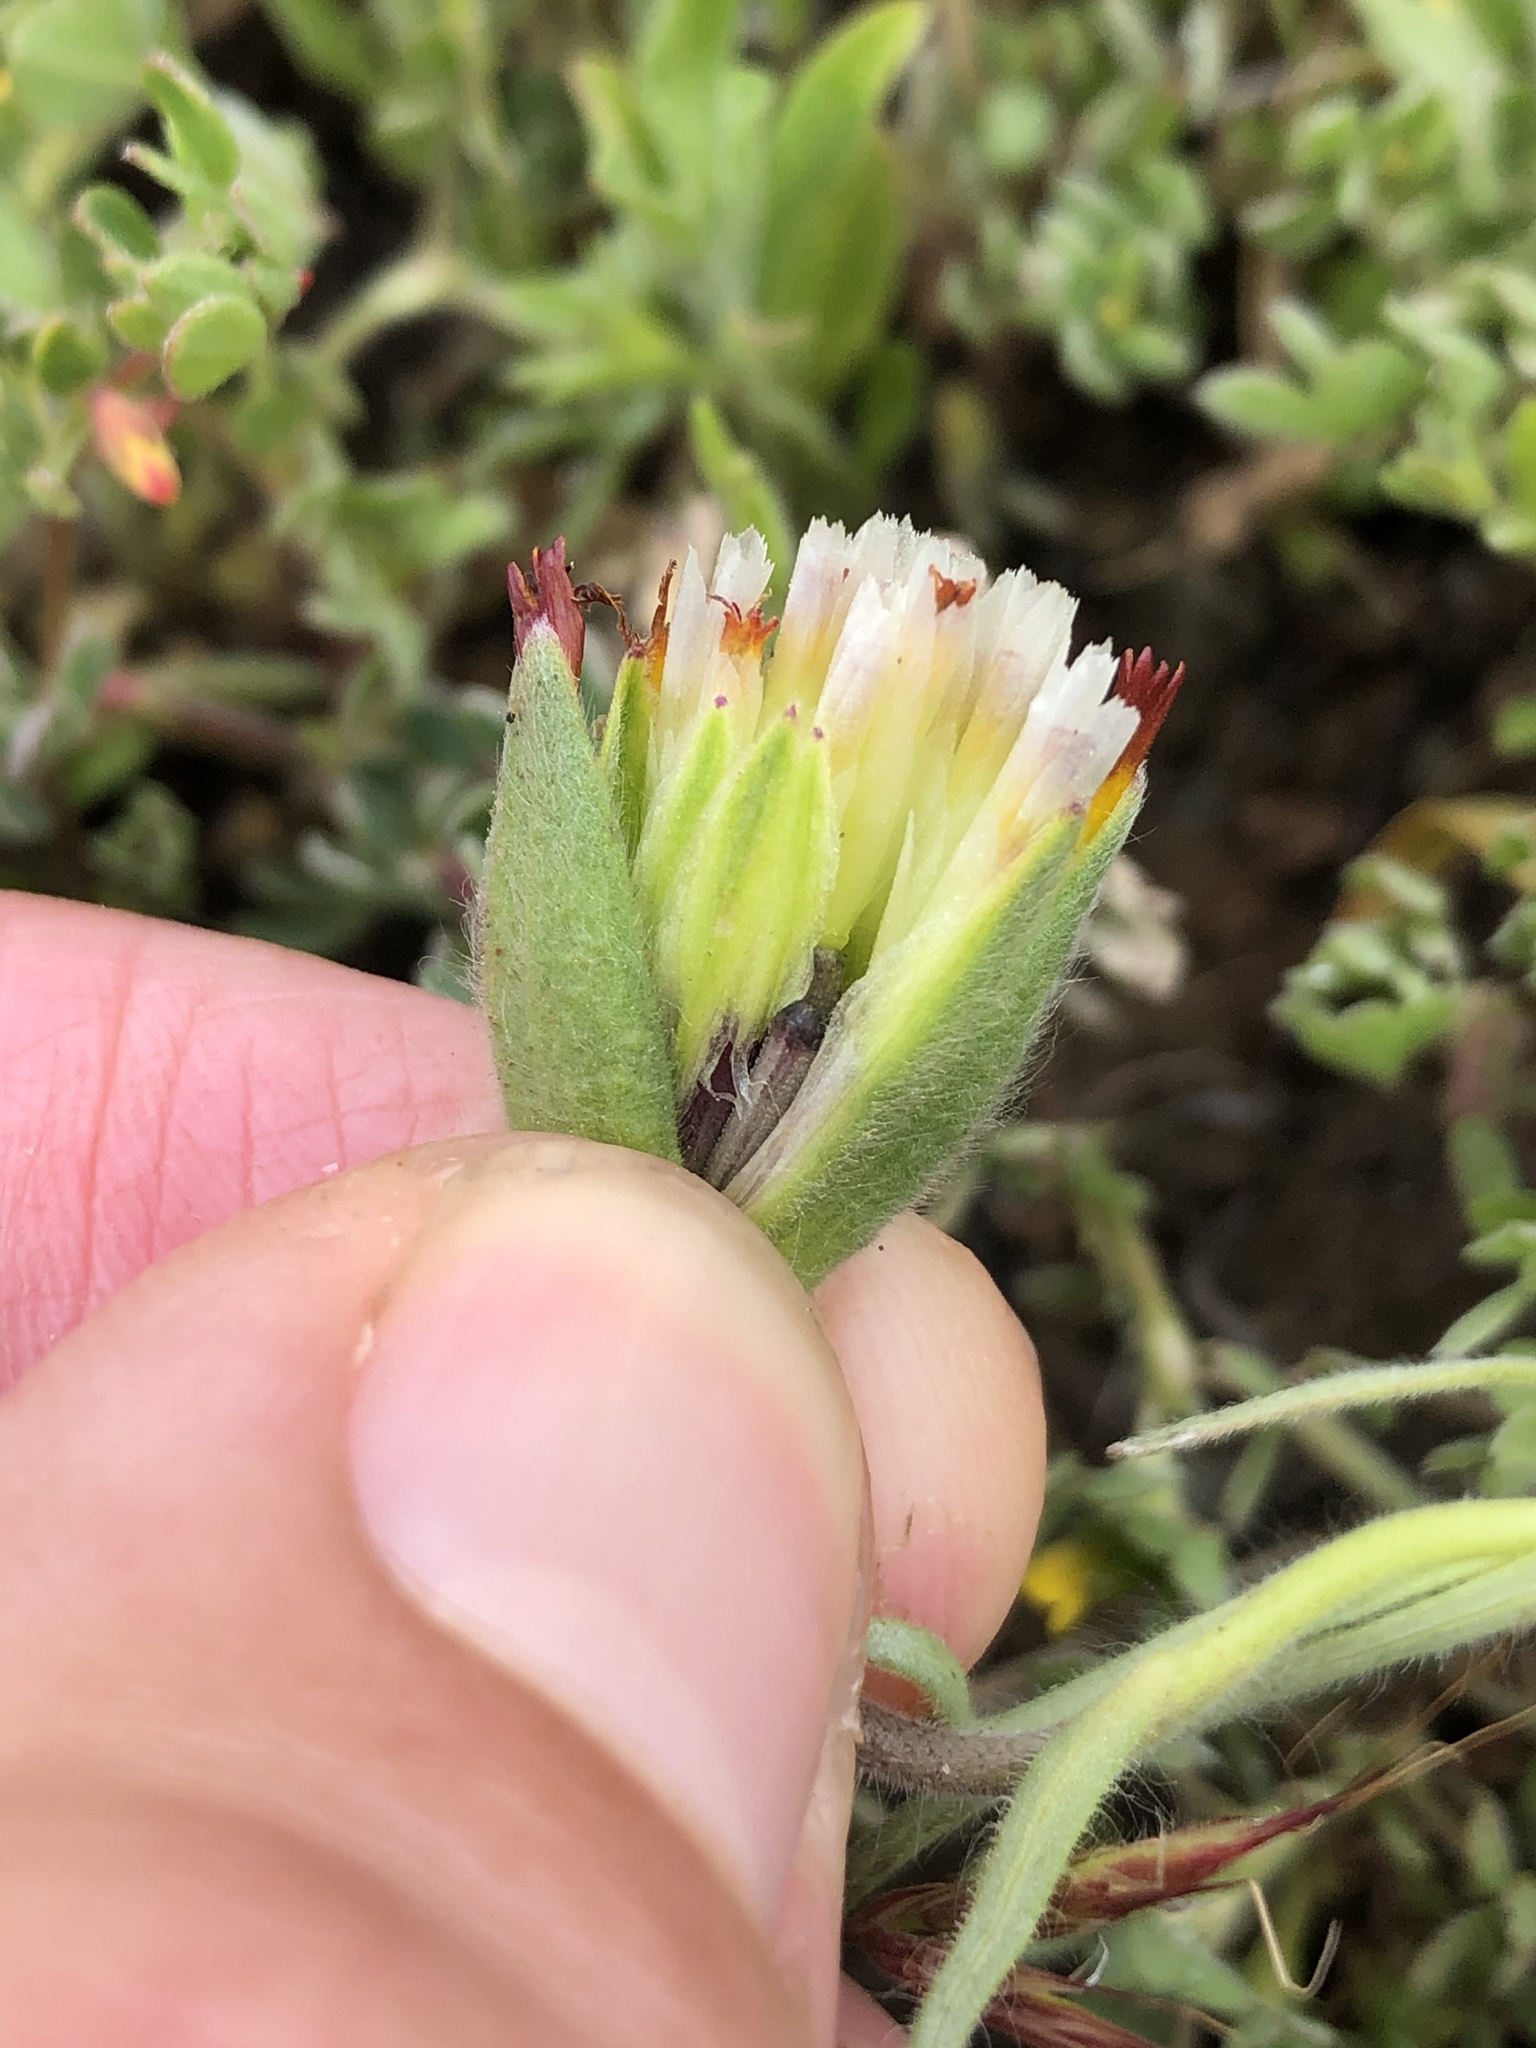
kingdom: Plantae
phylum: Tracheophyta
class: Magnoliopsida
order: Asterales
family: Asteraceae
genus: Achyrachaena
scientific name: Achyrachaena mollis
